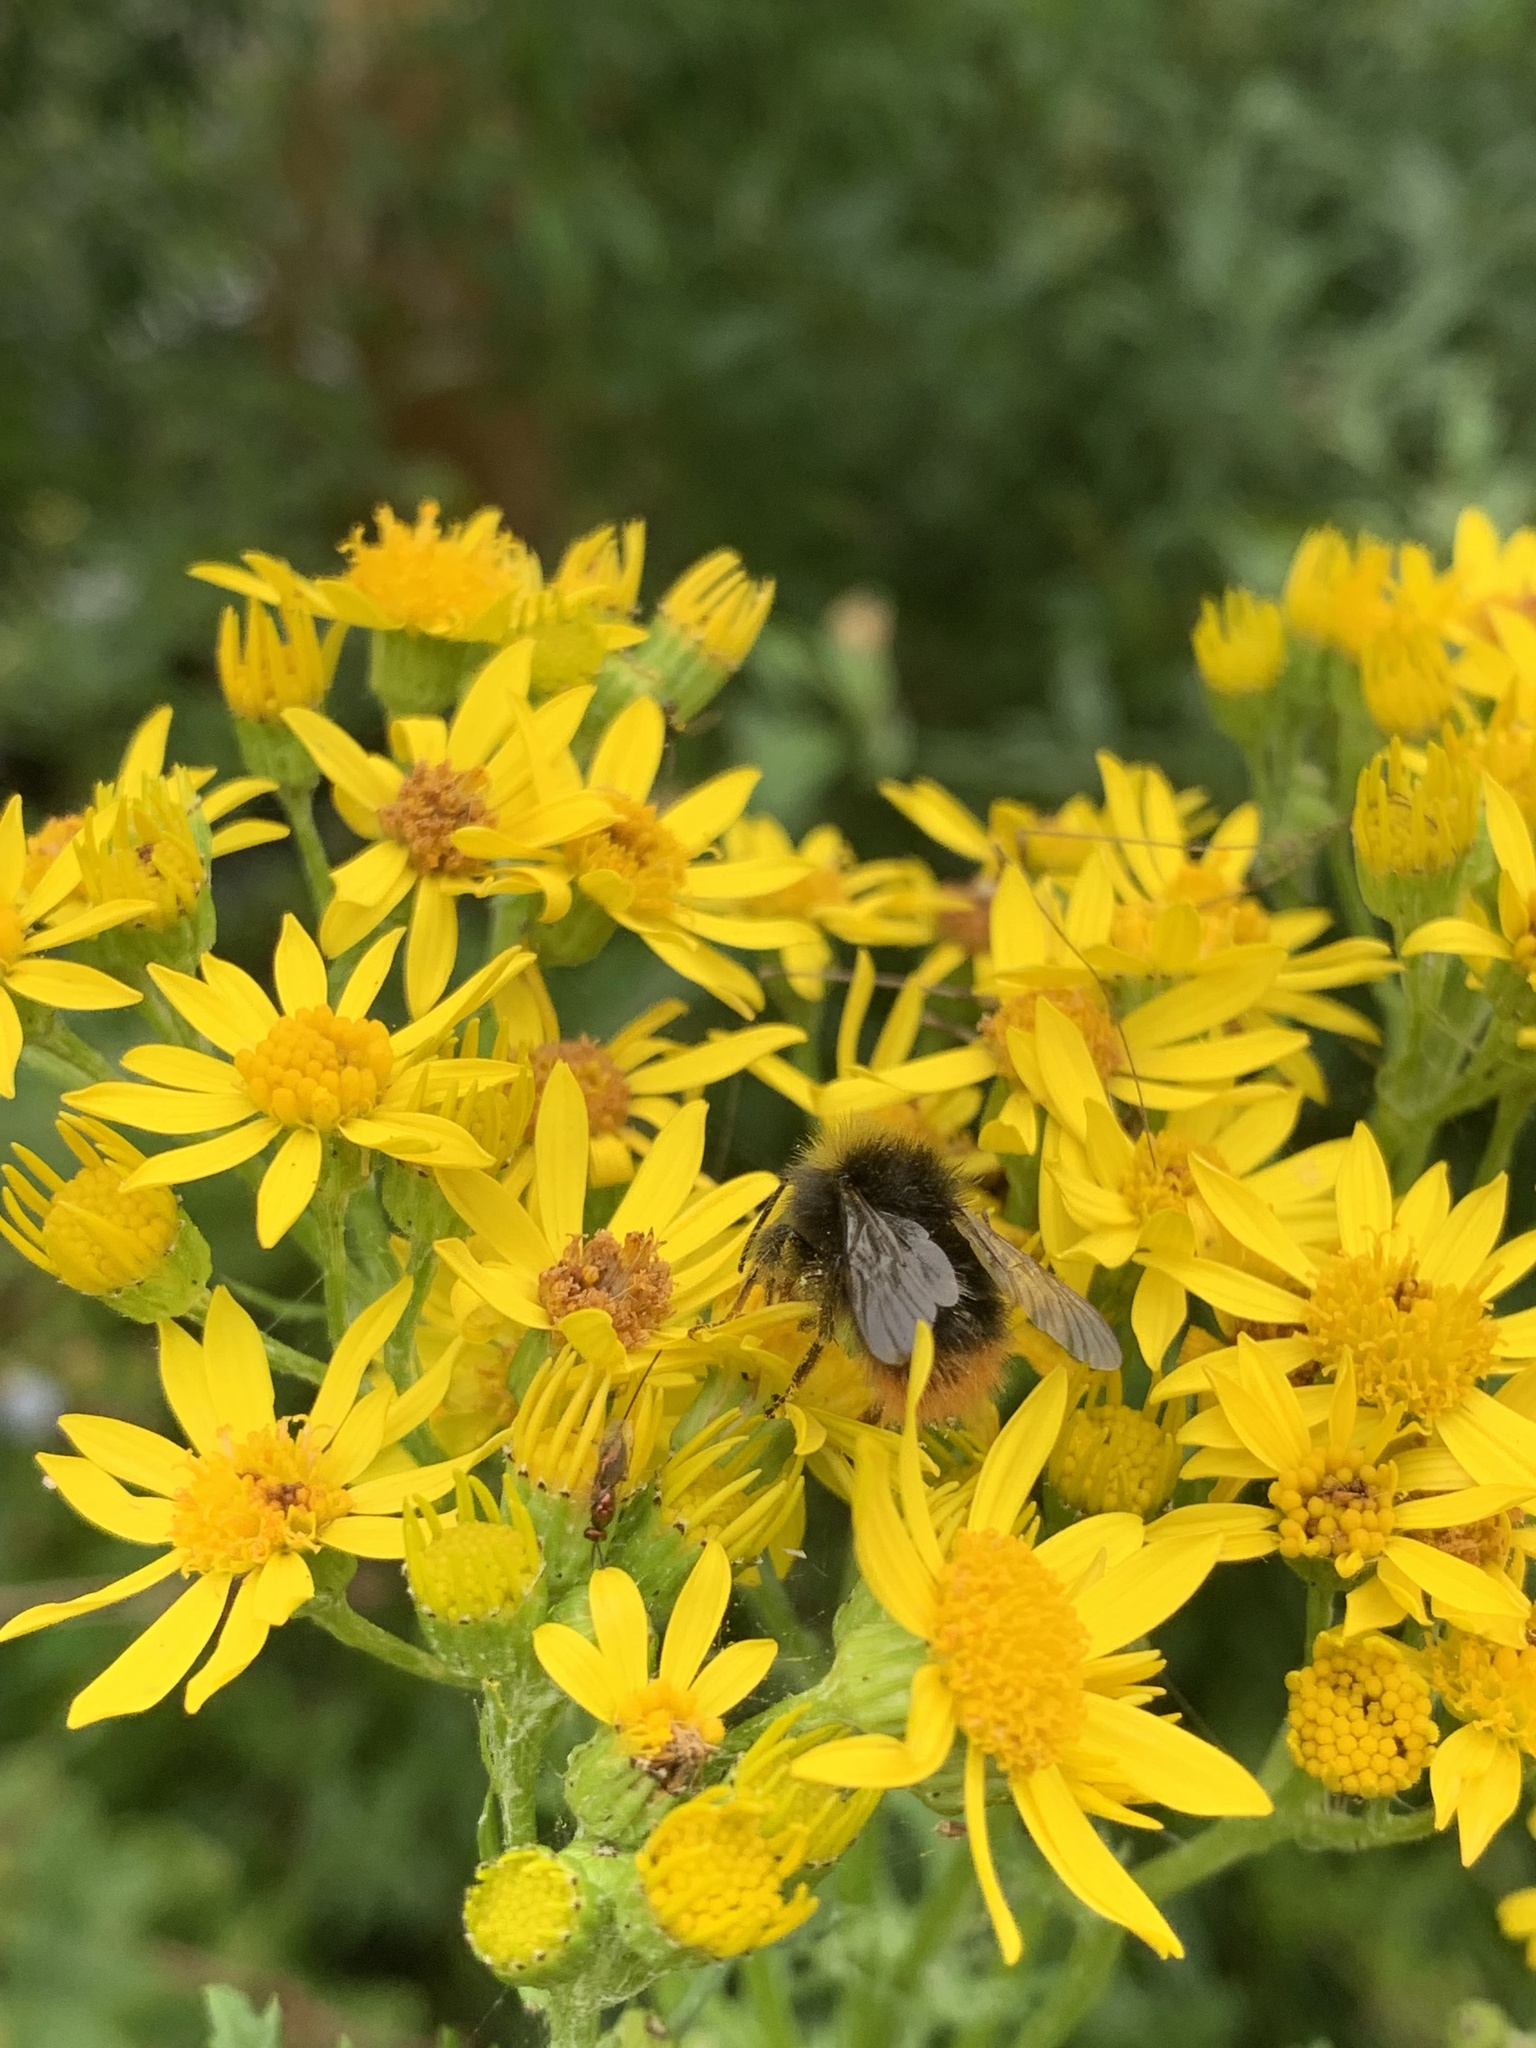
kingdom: Animalia
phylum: Arthropoda
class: Insecta
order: Hymenoptera
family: Apidae
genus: Bombus
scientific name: Bombus pratorum
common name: Early humble-bee
